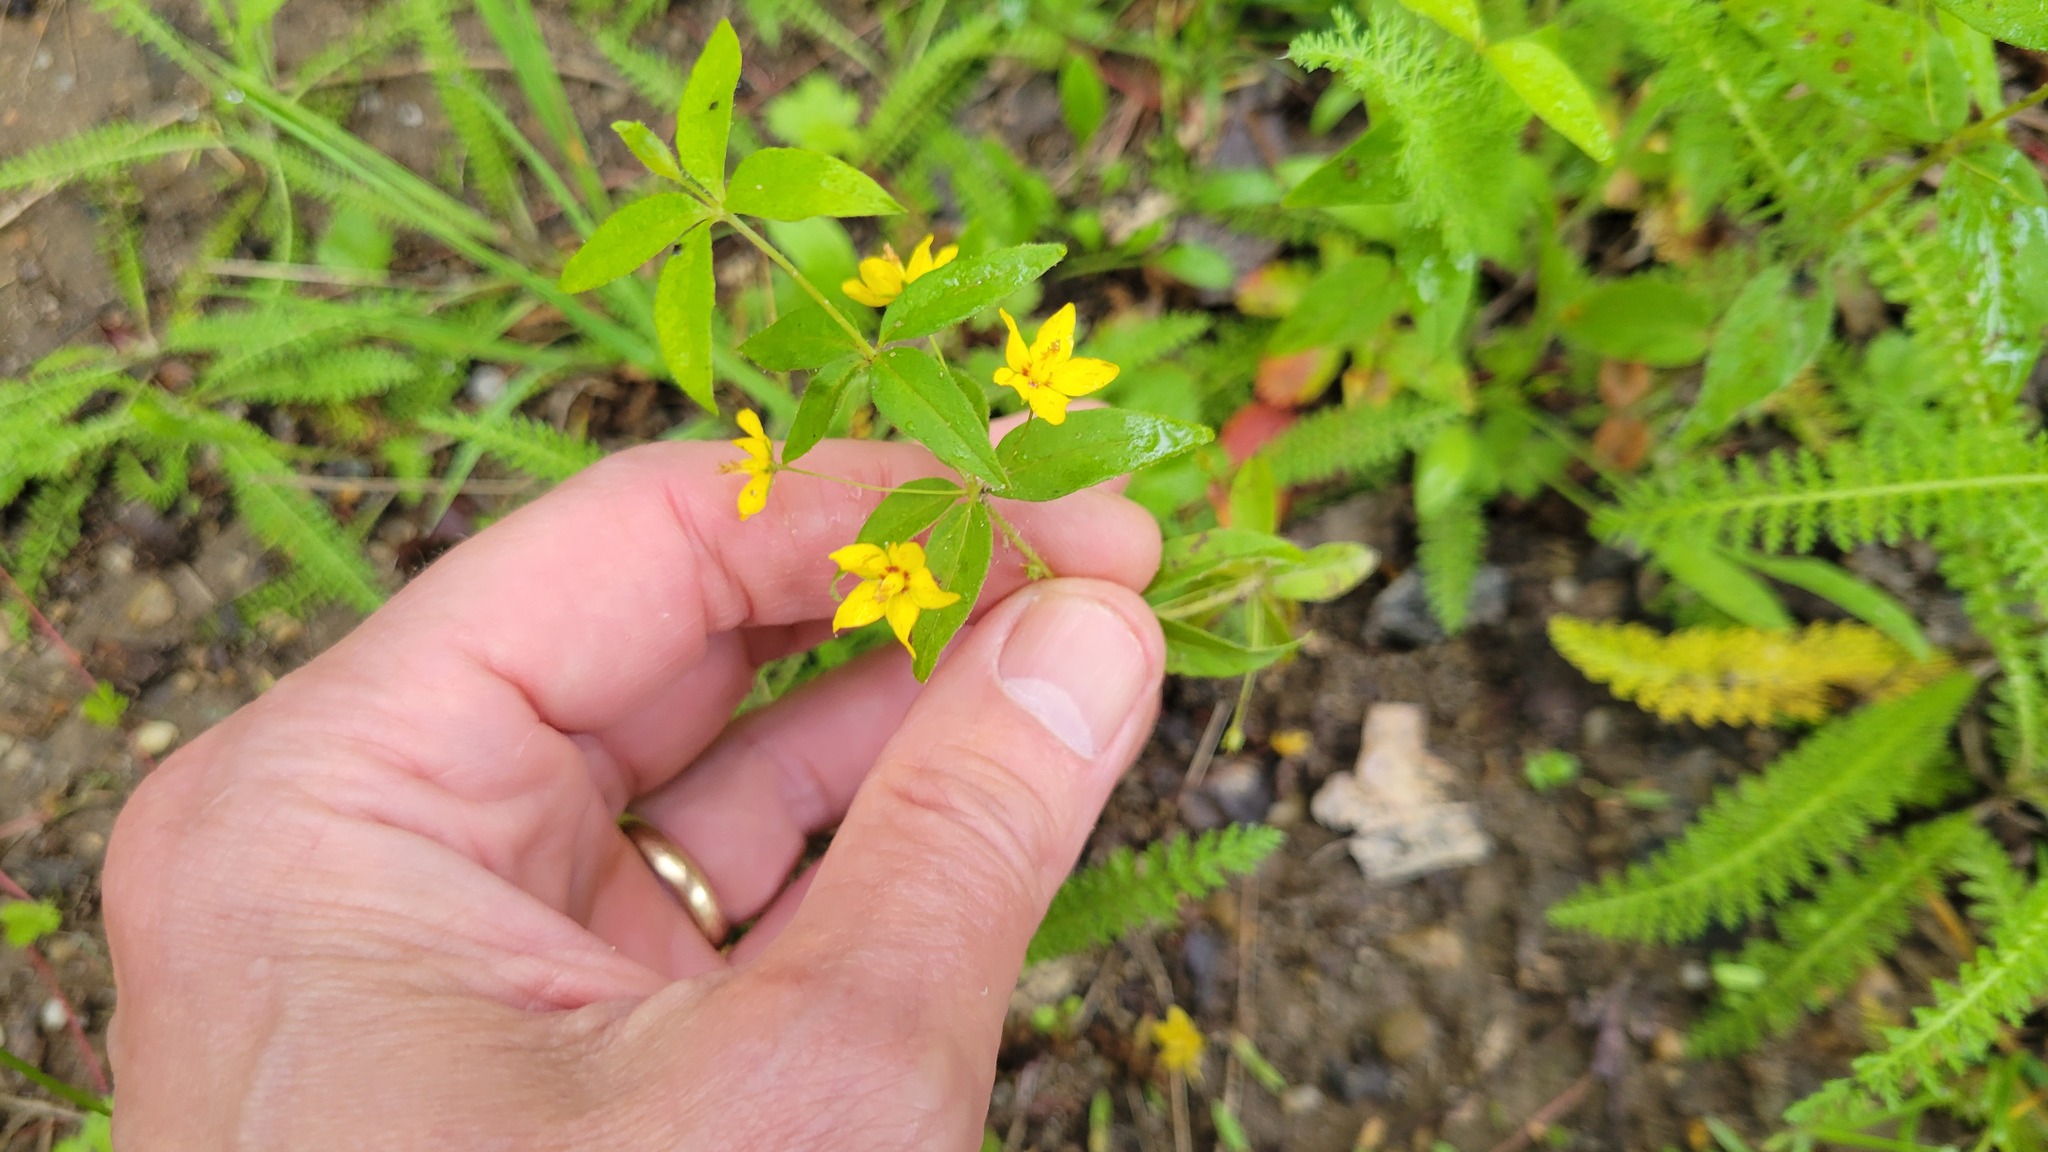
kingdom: Plantae
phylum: Tracheophyta
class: Magnoliopsida
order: Ericales
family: Primulaceae
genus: Lysimachia
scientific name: Lysimachia quadrifolia
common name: Whorled loosestrife
